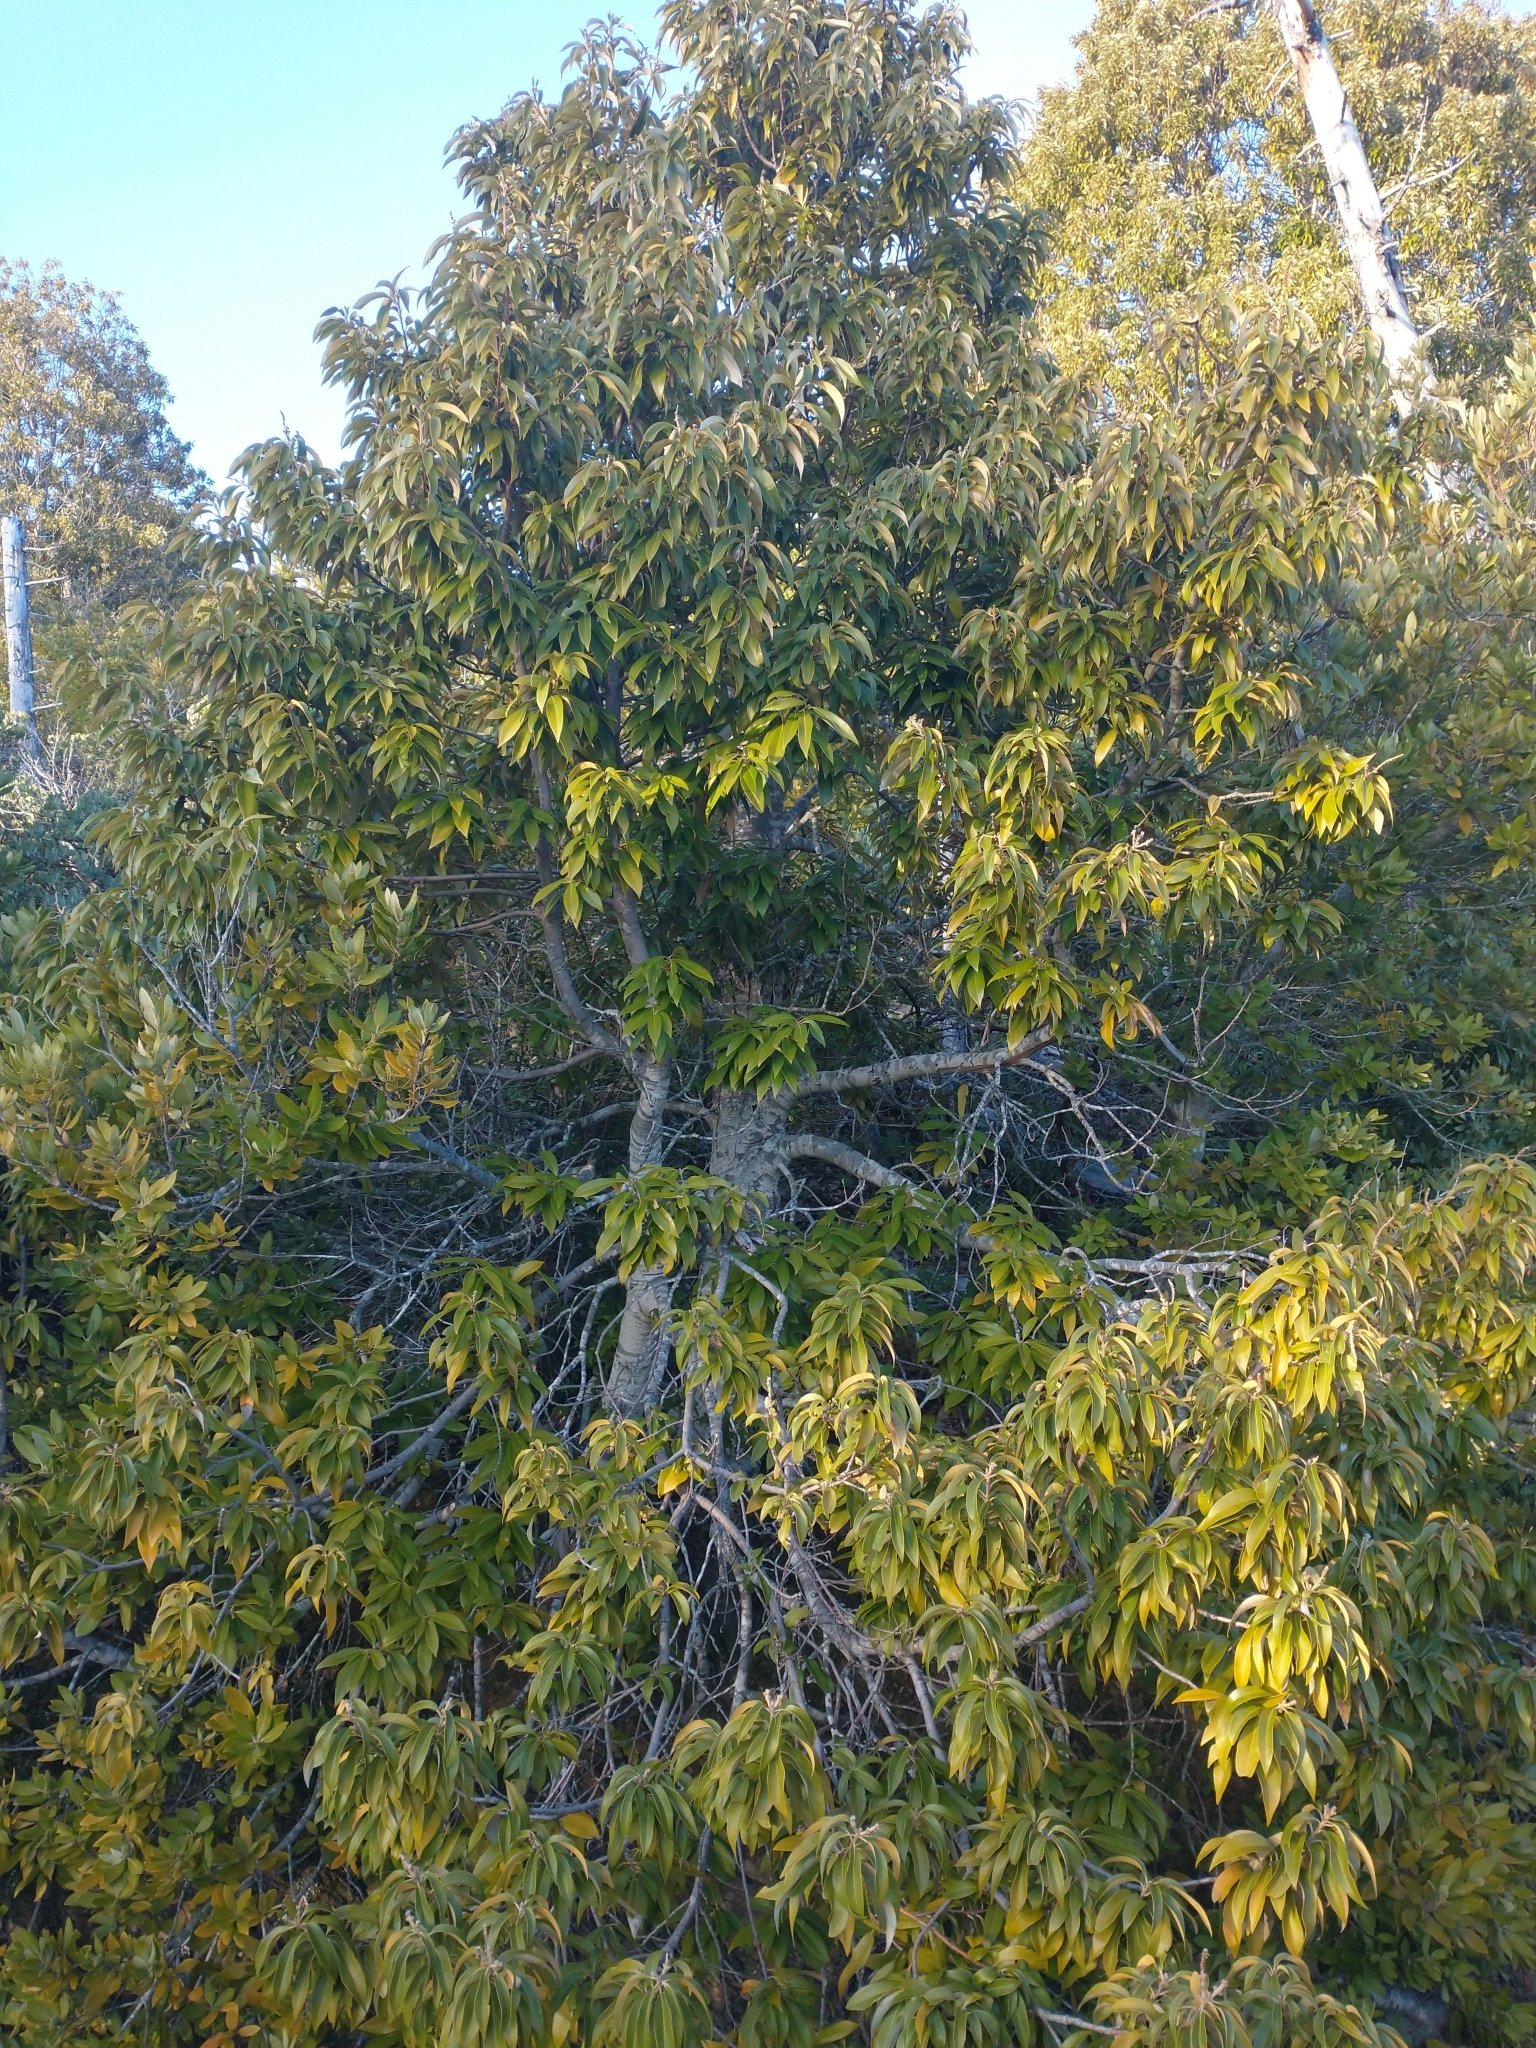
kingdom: Plantae
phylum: Tracheophyta
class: Magnoliopsida
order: Fagales
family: Fagaceae
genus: Chrysolepis
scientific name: Chrysolepis chrysophylla
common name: Giant chinquapin
